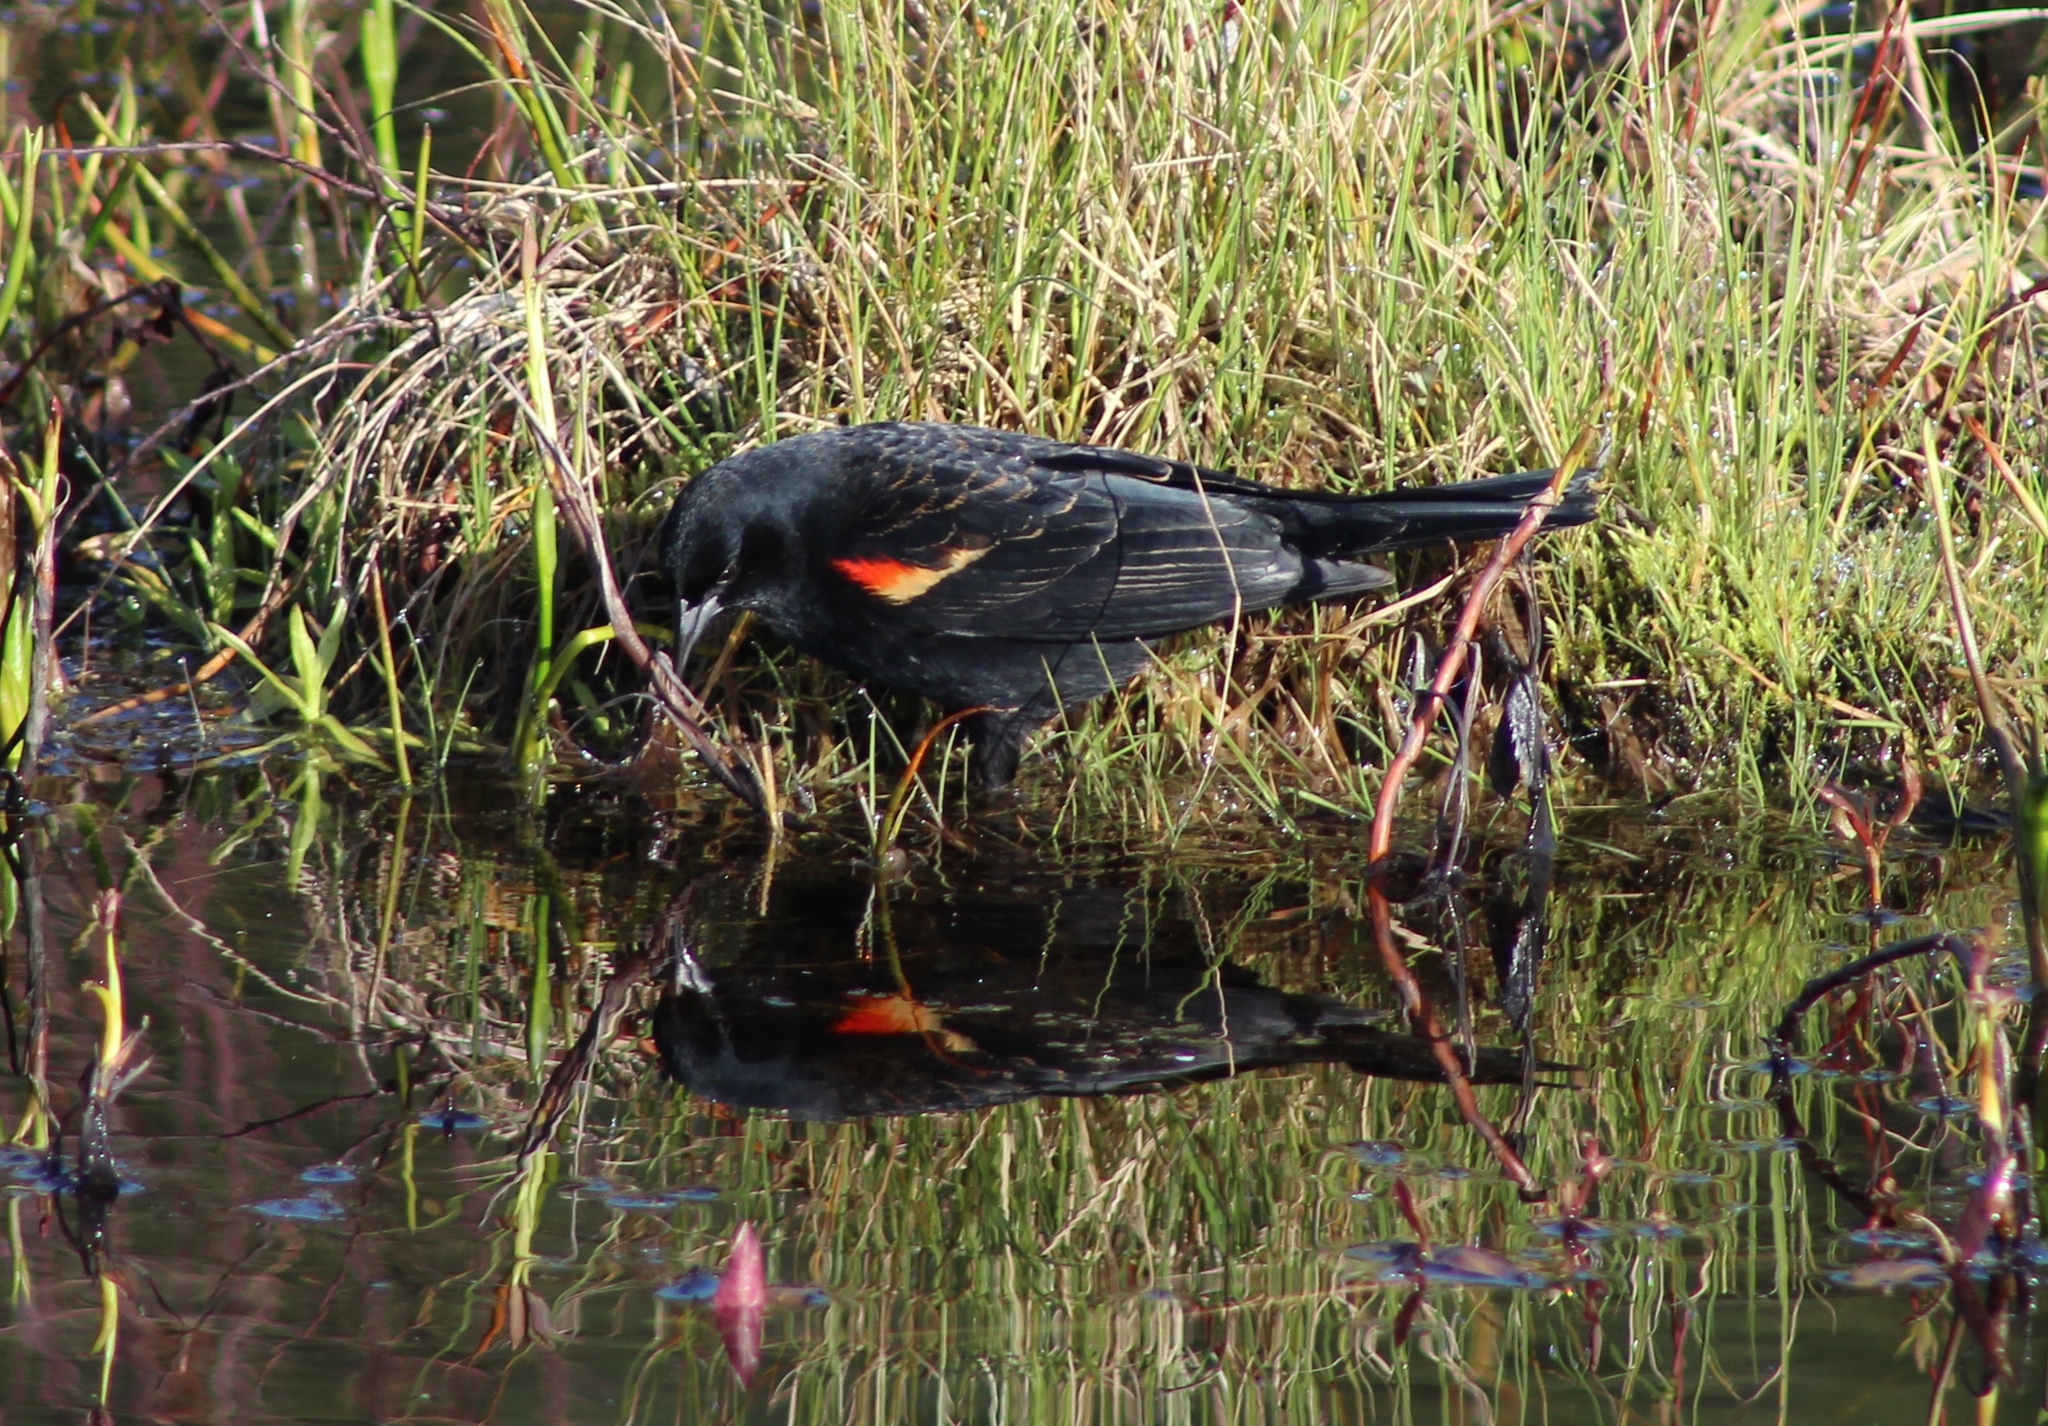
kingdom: Animalia
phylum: Chordata
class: Aves
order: Passeriformes
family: Icteridae
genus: Agelaius
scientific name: Agelaius phoeniceus
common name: Red-winged blackbird
